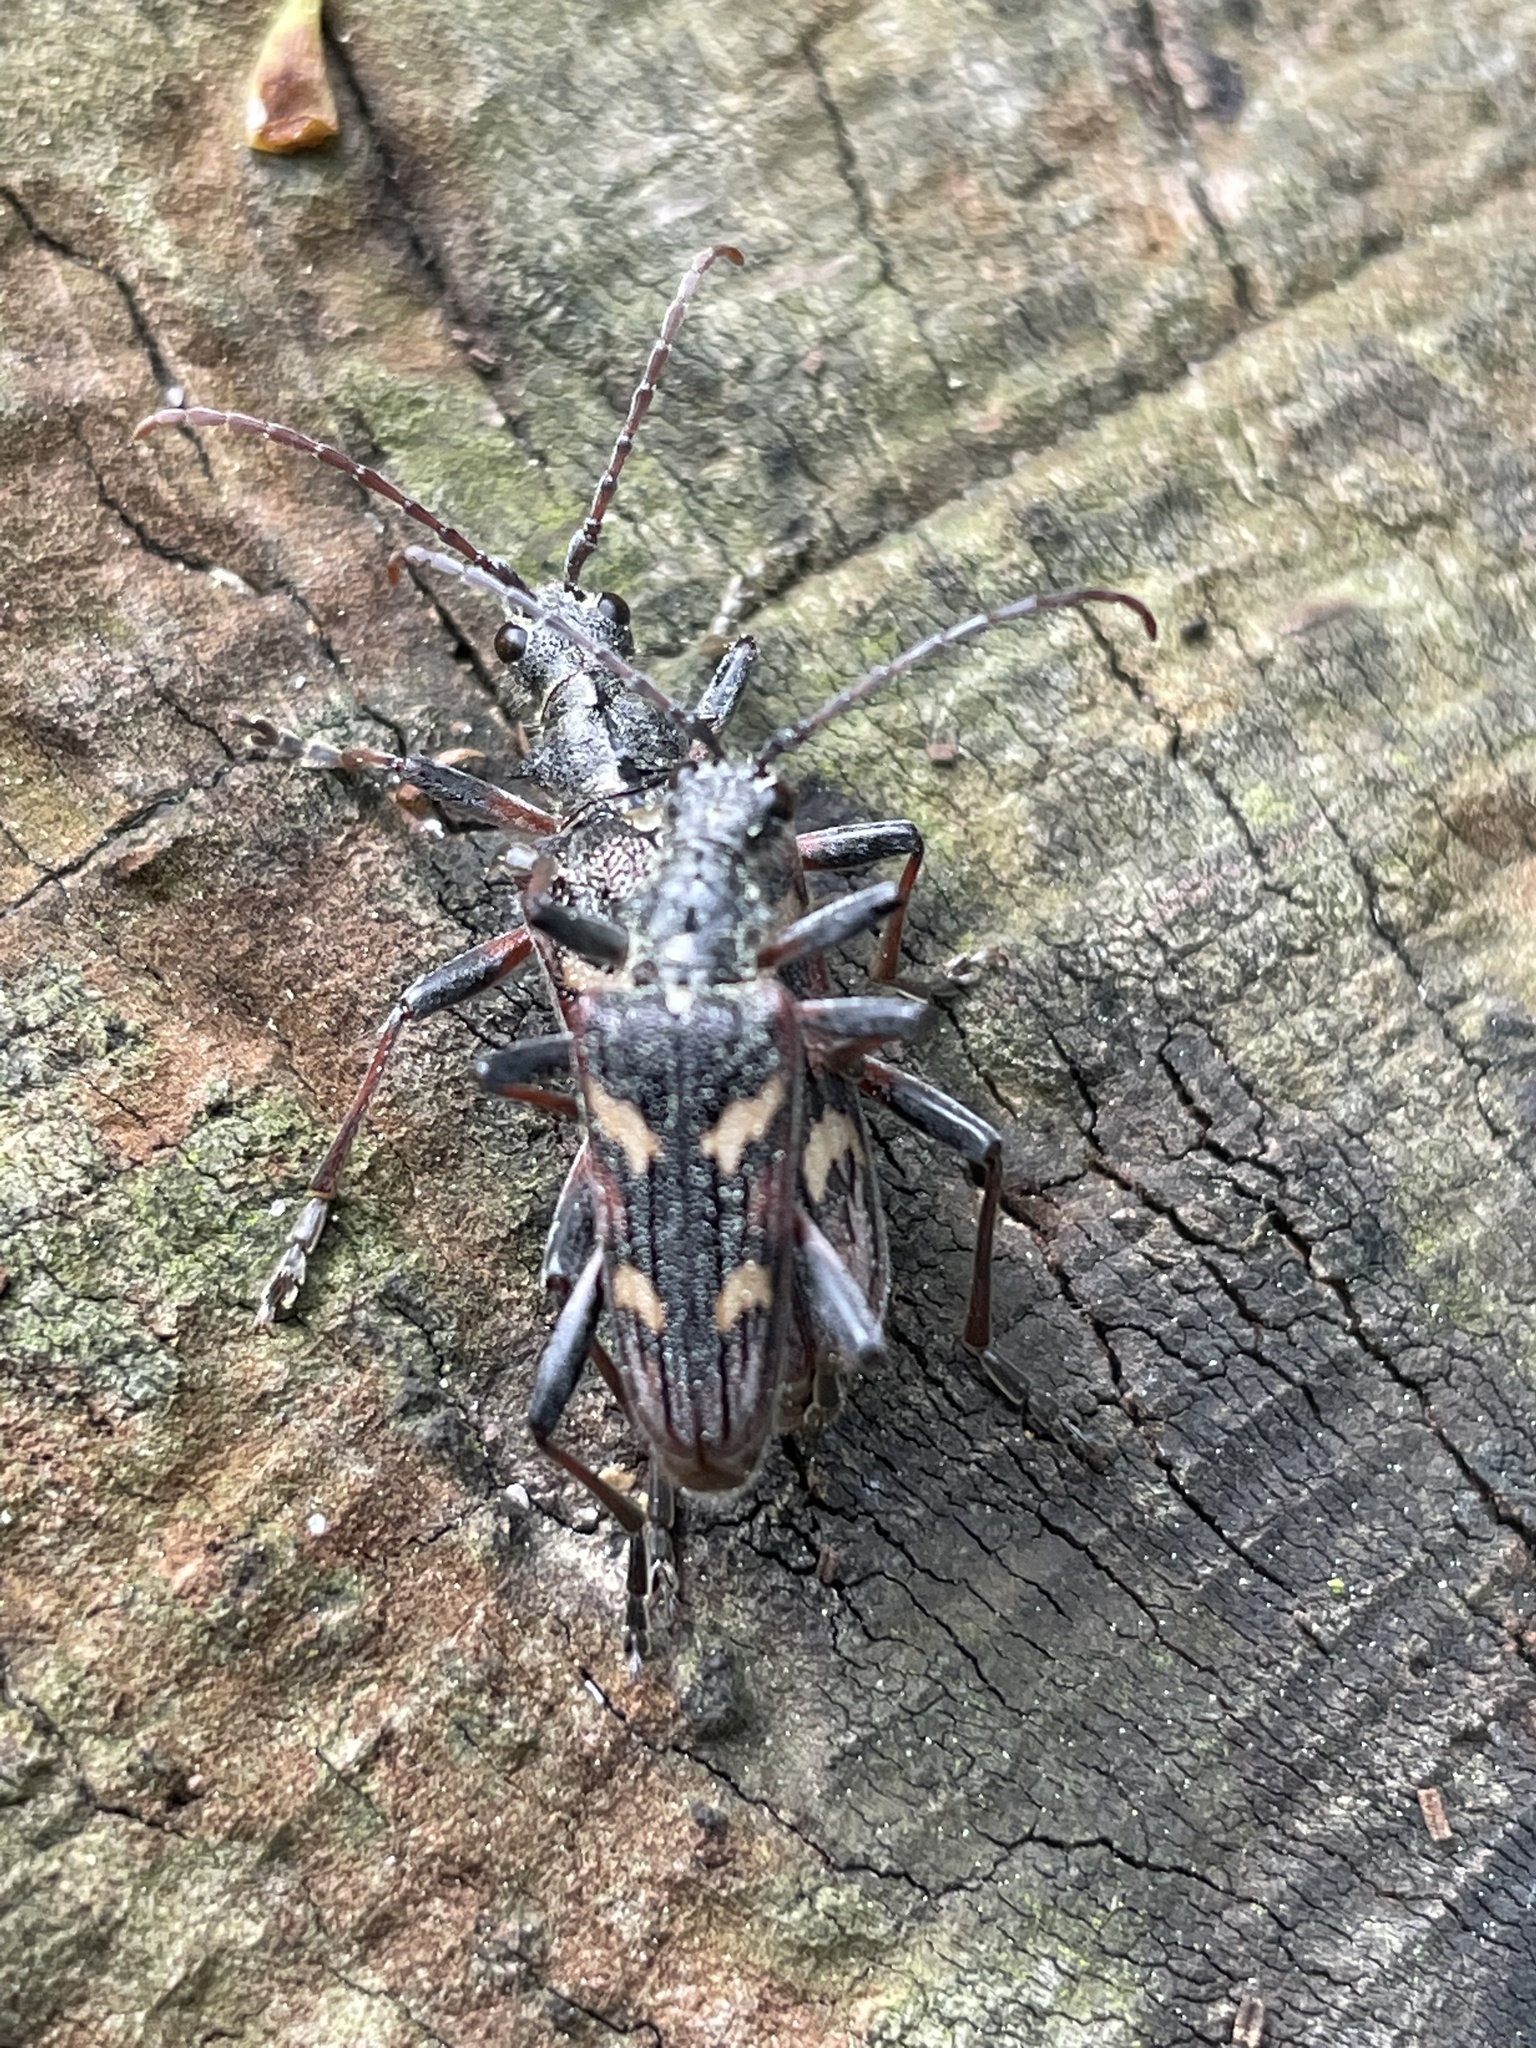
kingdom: Animalia
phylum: Arthropoda
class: Insecta
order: Coleoptera
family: Cerambycidae
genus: Rhagium
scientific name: Rhagium bifasciatum
